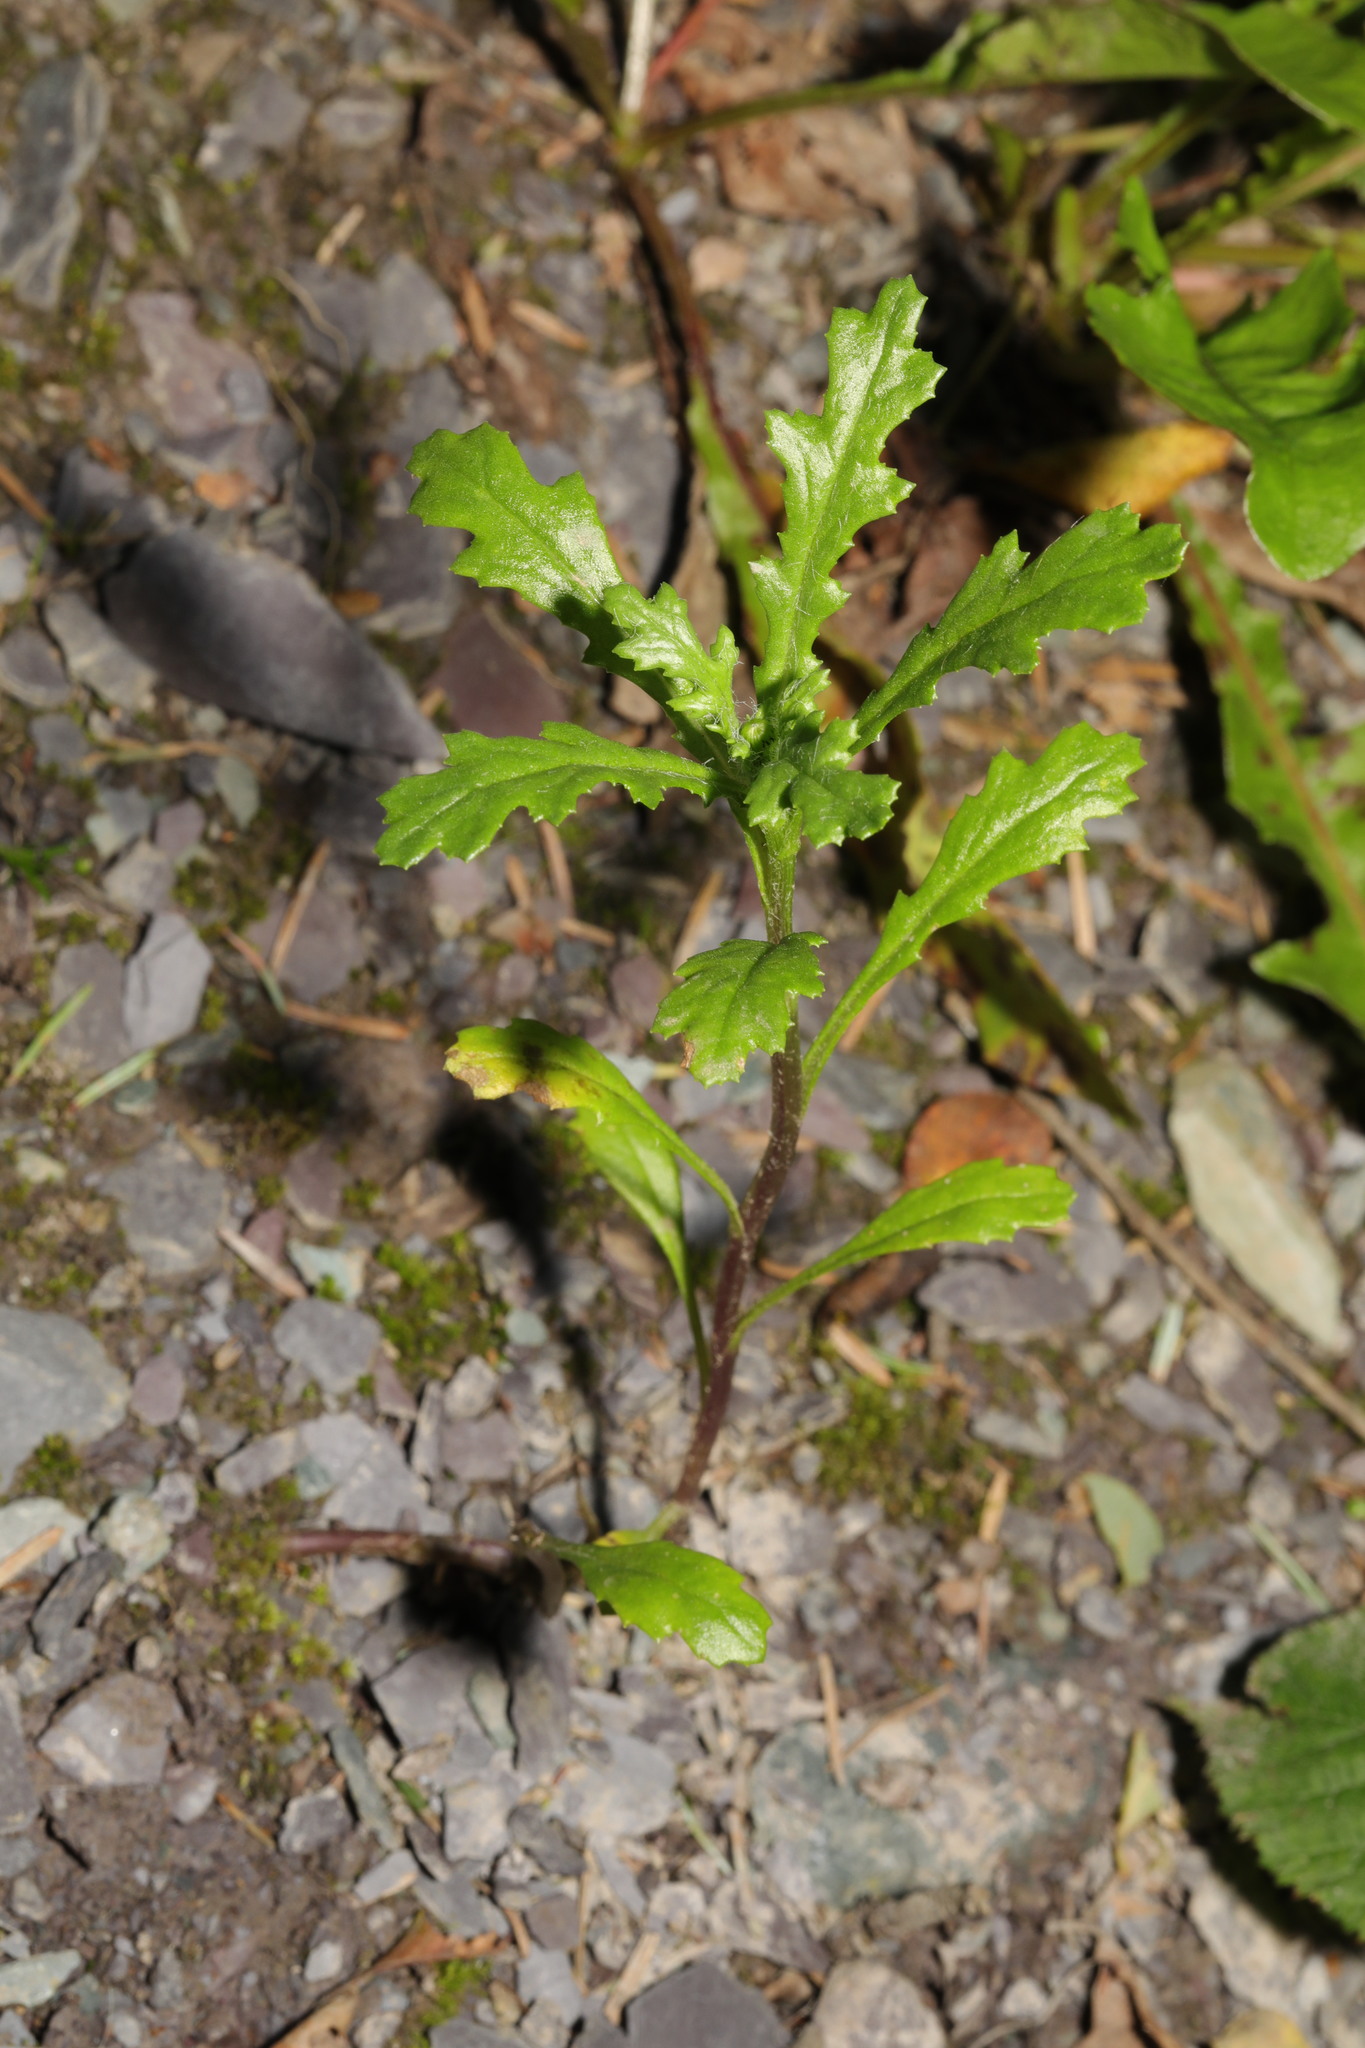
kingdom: Plantae
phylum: Tracheophyta
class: Magnoliopsida
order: Asterales
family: Asteraceae
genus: Senecio
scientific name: Senecio vulgaris
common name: Old-man-in-the-spring
